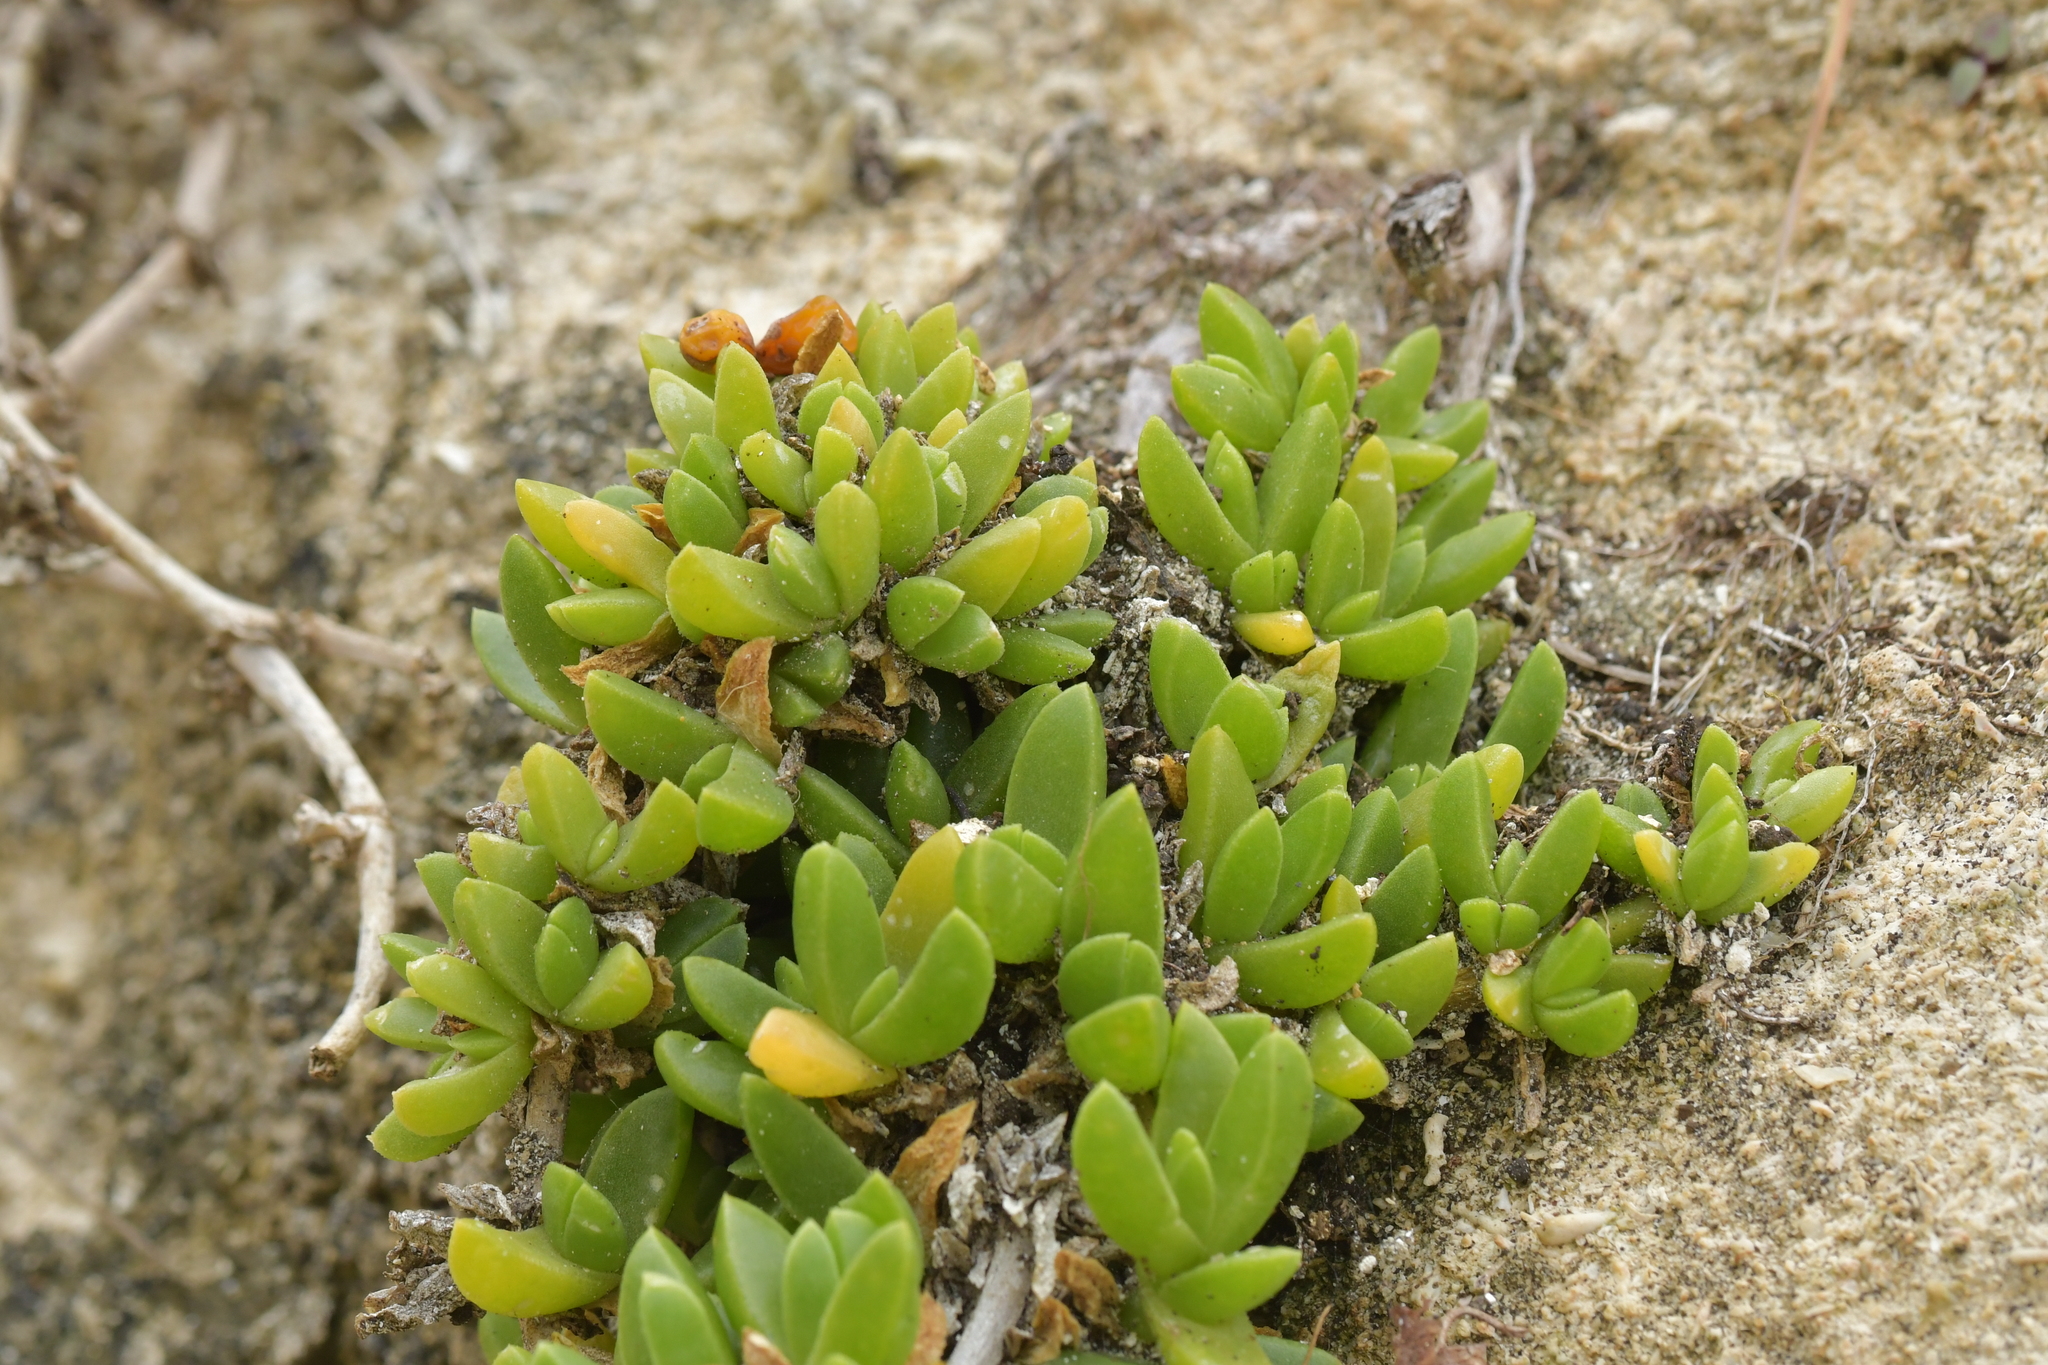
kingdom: Plantae
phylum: Tracheophyta
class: Magnoliopsida
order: Caryophyllales
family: Aizoaceae
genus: Disphyma
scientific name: Disphyma papillatum
